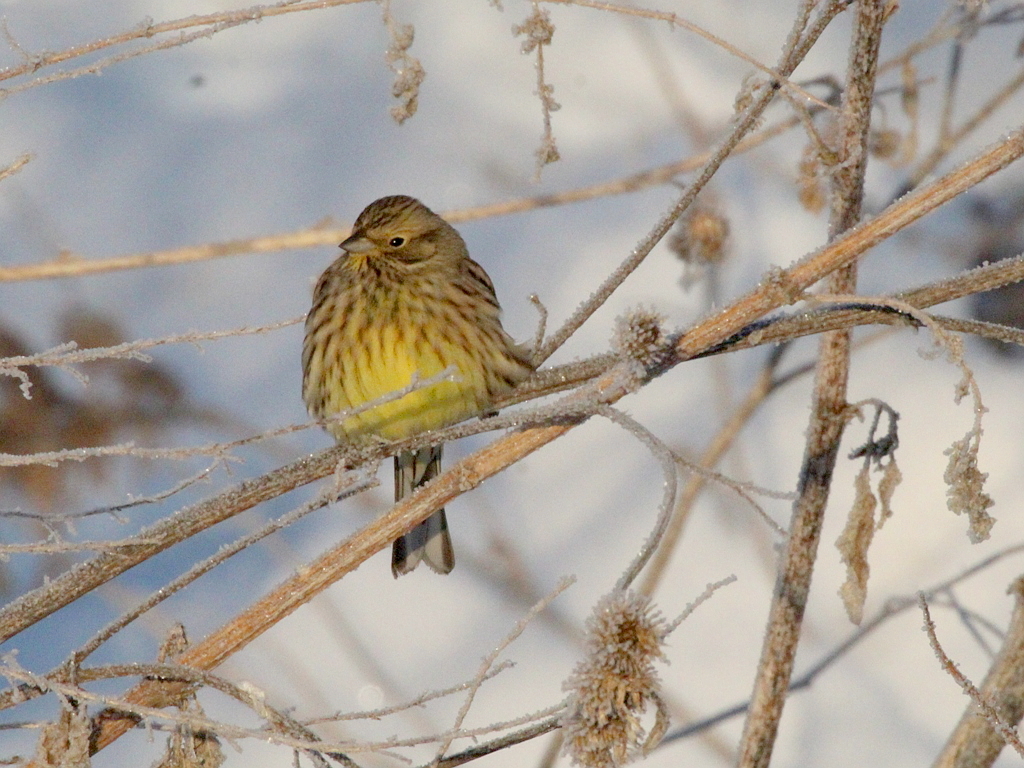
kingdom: Animalia
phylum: Chordata
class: Aves
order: Passeriformes
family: Emberizidae
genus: Emberiza
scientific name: Emberiza citrinella
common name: Yellowhammer
